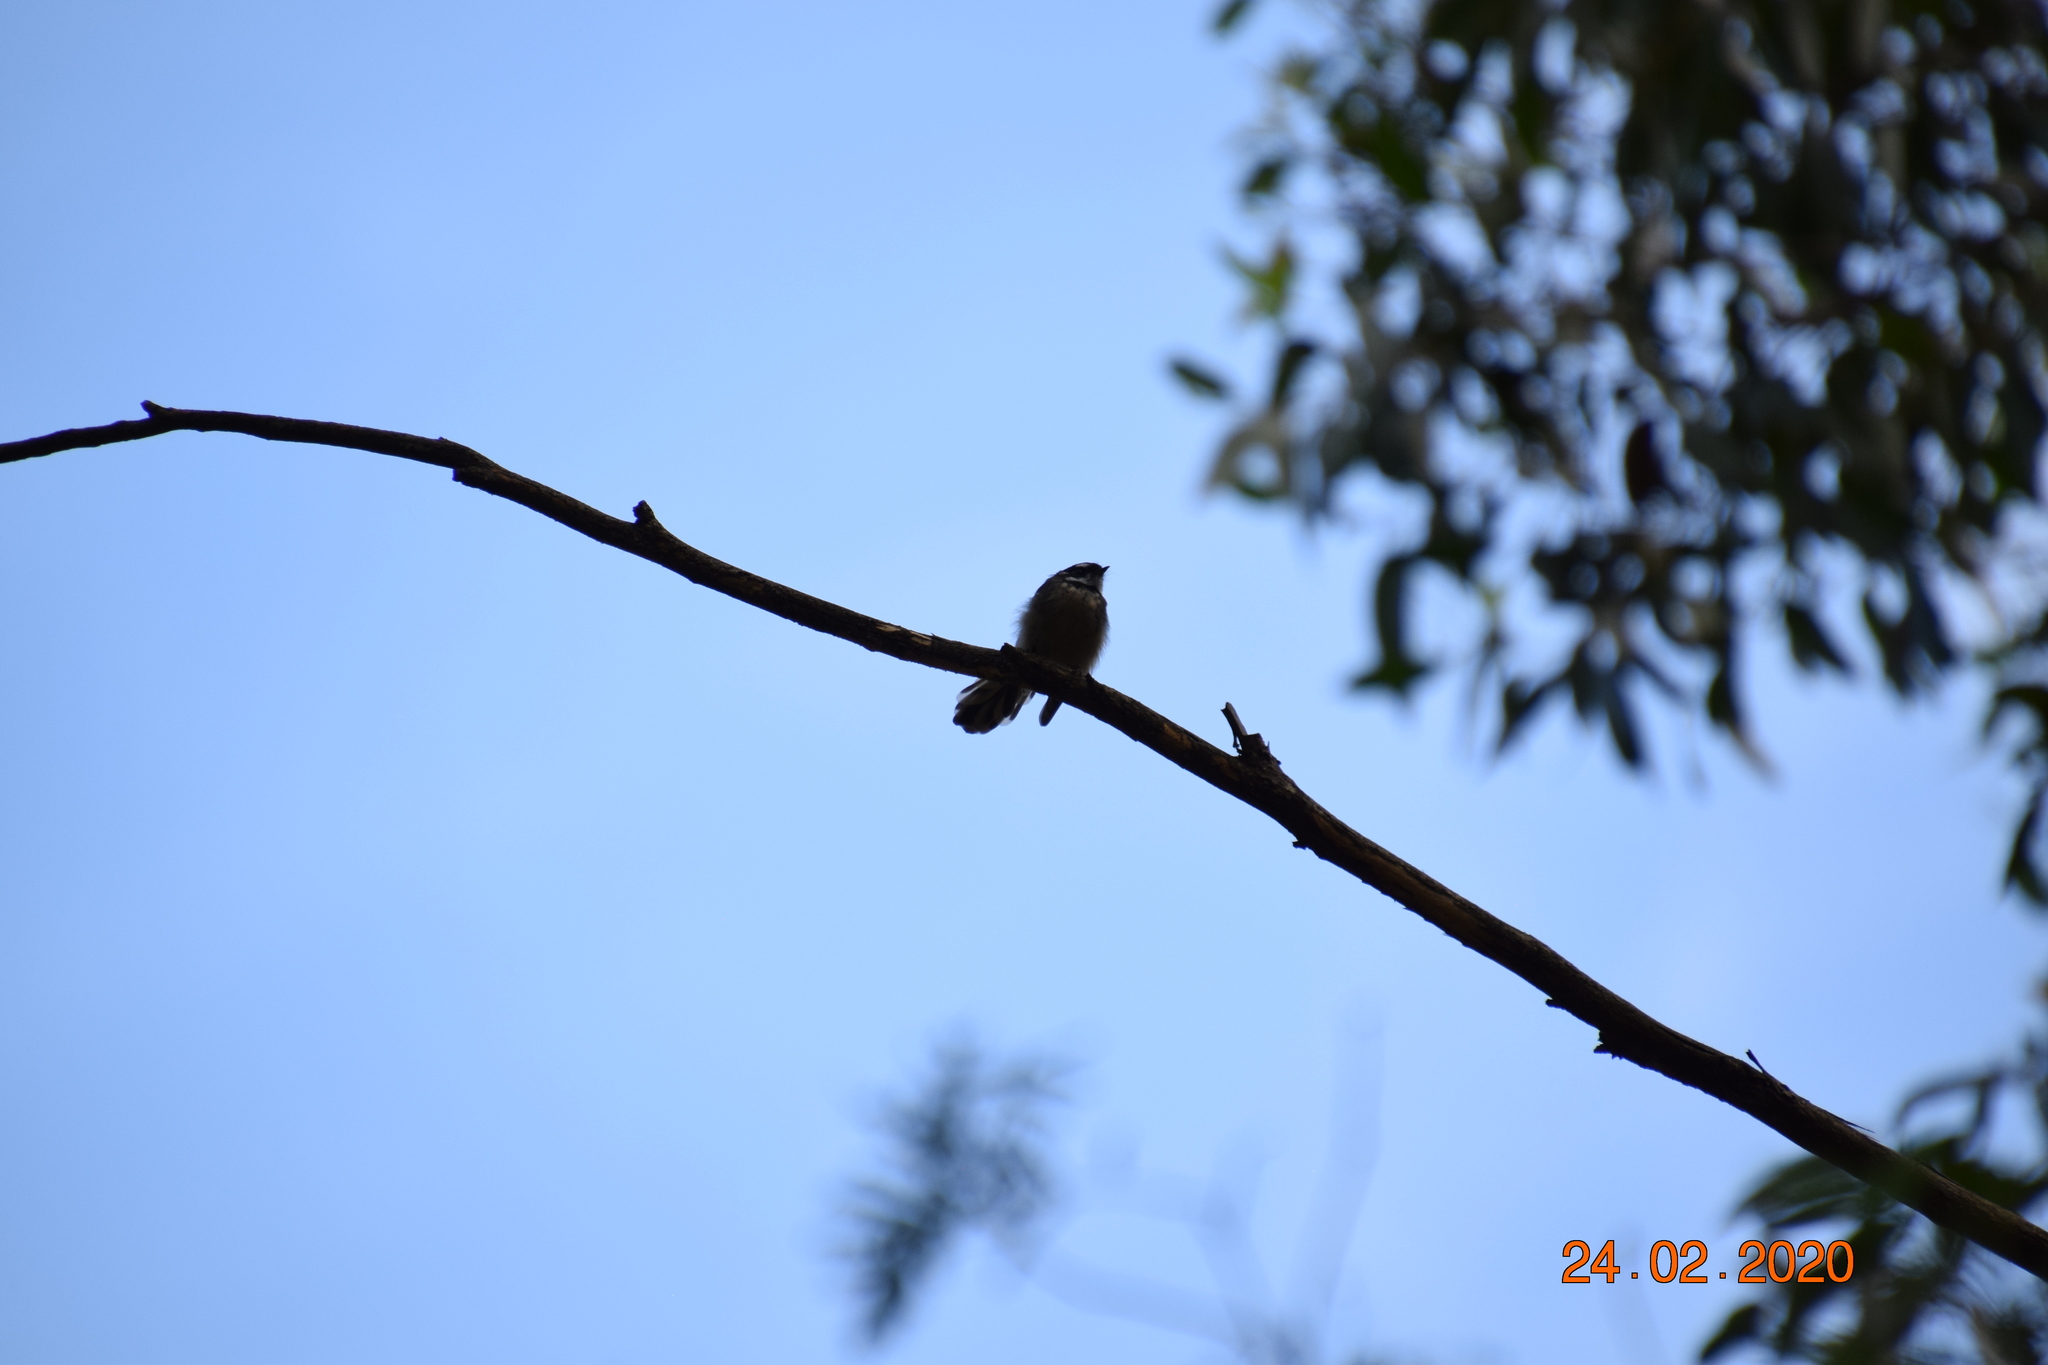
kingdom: Animalia
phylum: Chordata
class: Aves
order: Passeriformes
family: Rhipiduridae
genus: Rhipidura
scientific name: Rhipidura albiscapa
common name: Grey fantail
